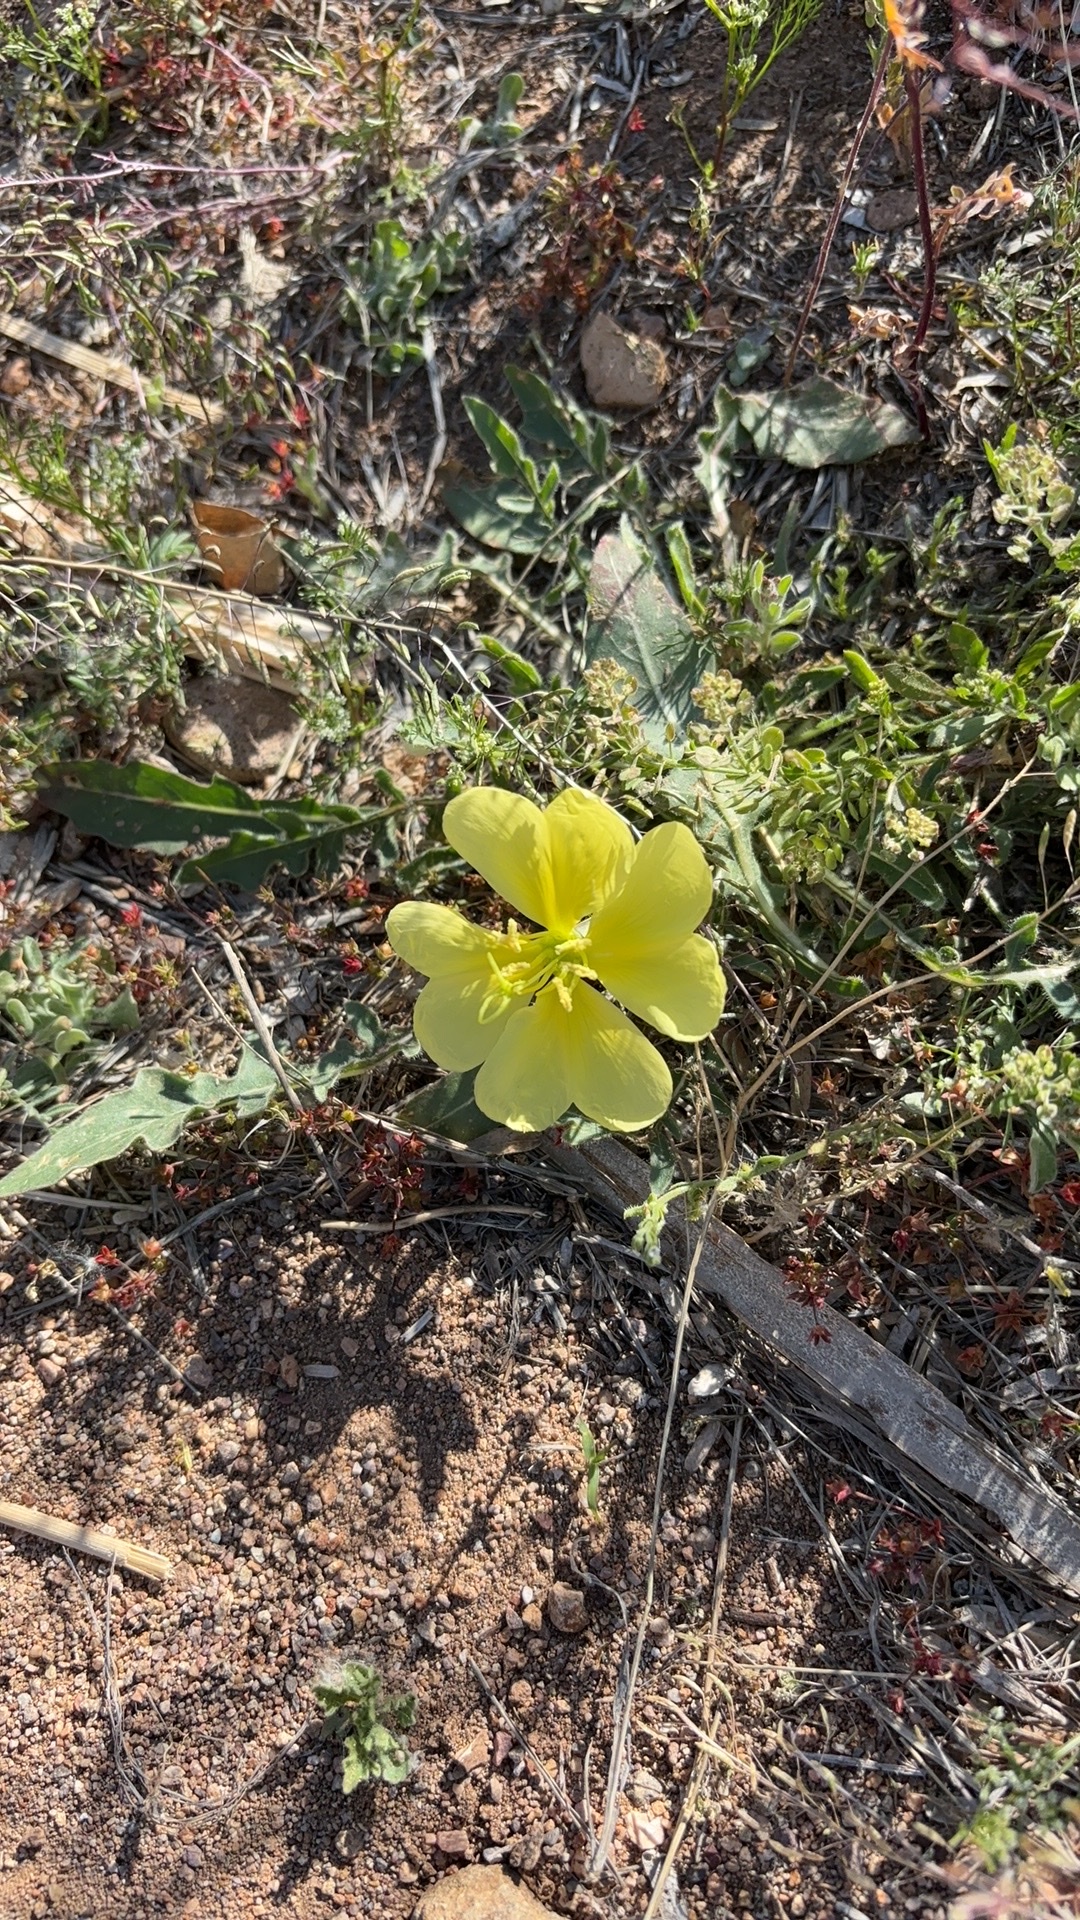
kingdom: Plantae
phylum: Tracheophyta
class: Magnoliopsida
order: Myrtales
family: Onagraceae
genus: Oenothera
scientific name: Oenothera primiveris
